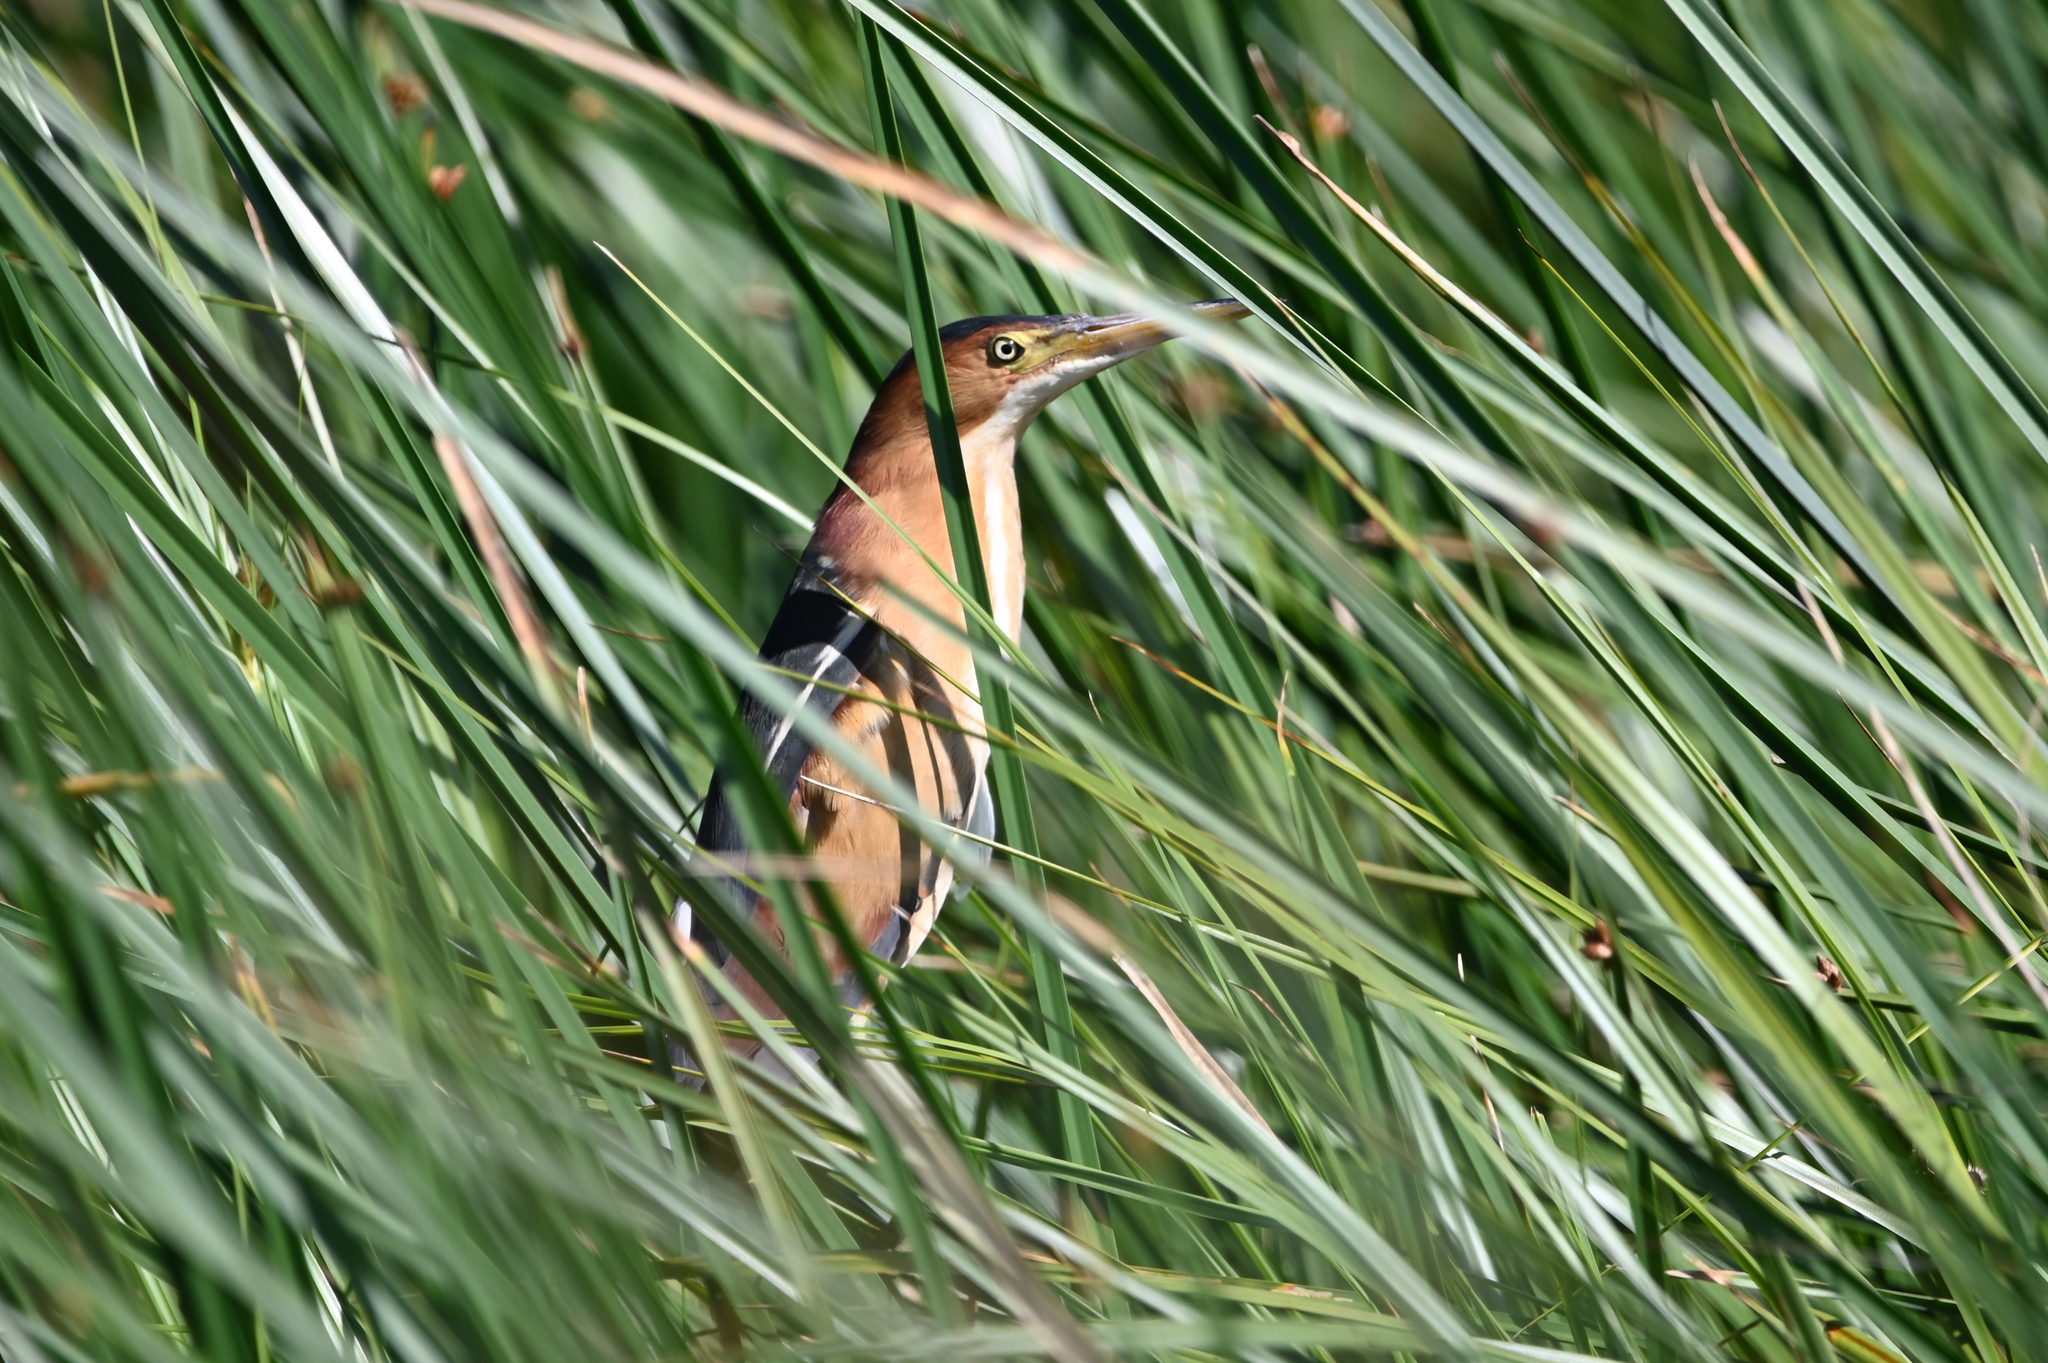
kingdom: Animalia
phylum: Chordata
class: Aves
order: Pelecaniformes
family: Ardeidae
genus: Ixobrychus
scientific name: Ixobrychus exilis
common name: Least bittern
